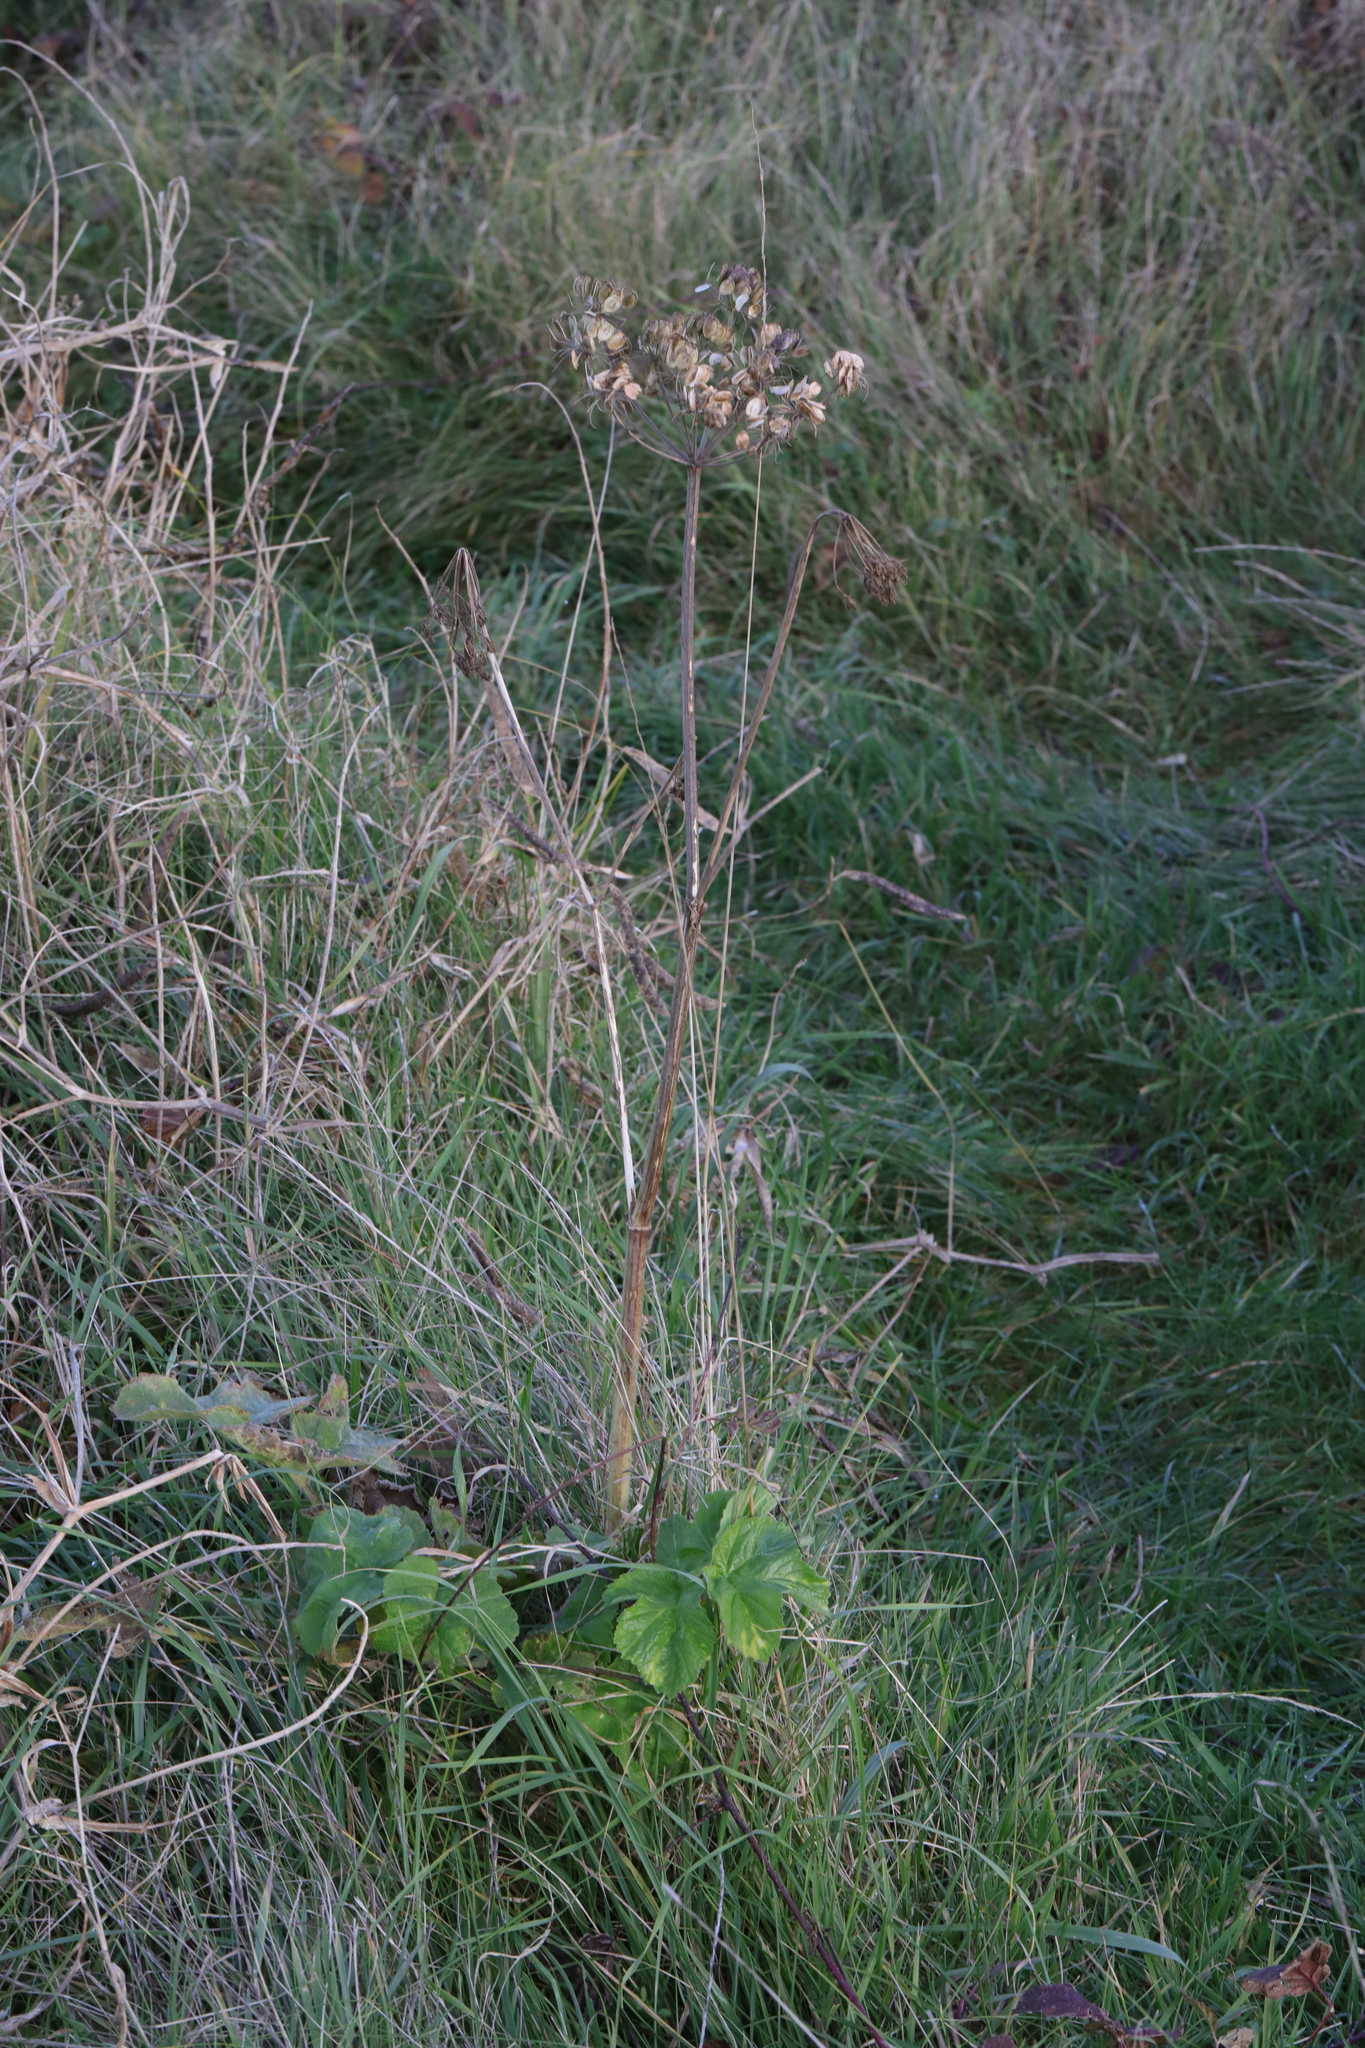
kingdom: Plantae
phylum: Tracheophyta
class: Magnoliopsida
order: Apiales
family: Apiaceae
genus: Heracleum
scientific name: Heracleum sphondylium
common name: Hogweed
